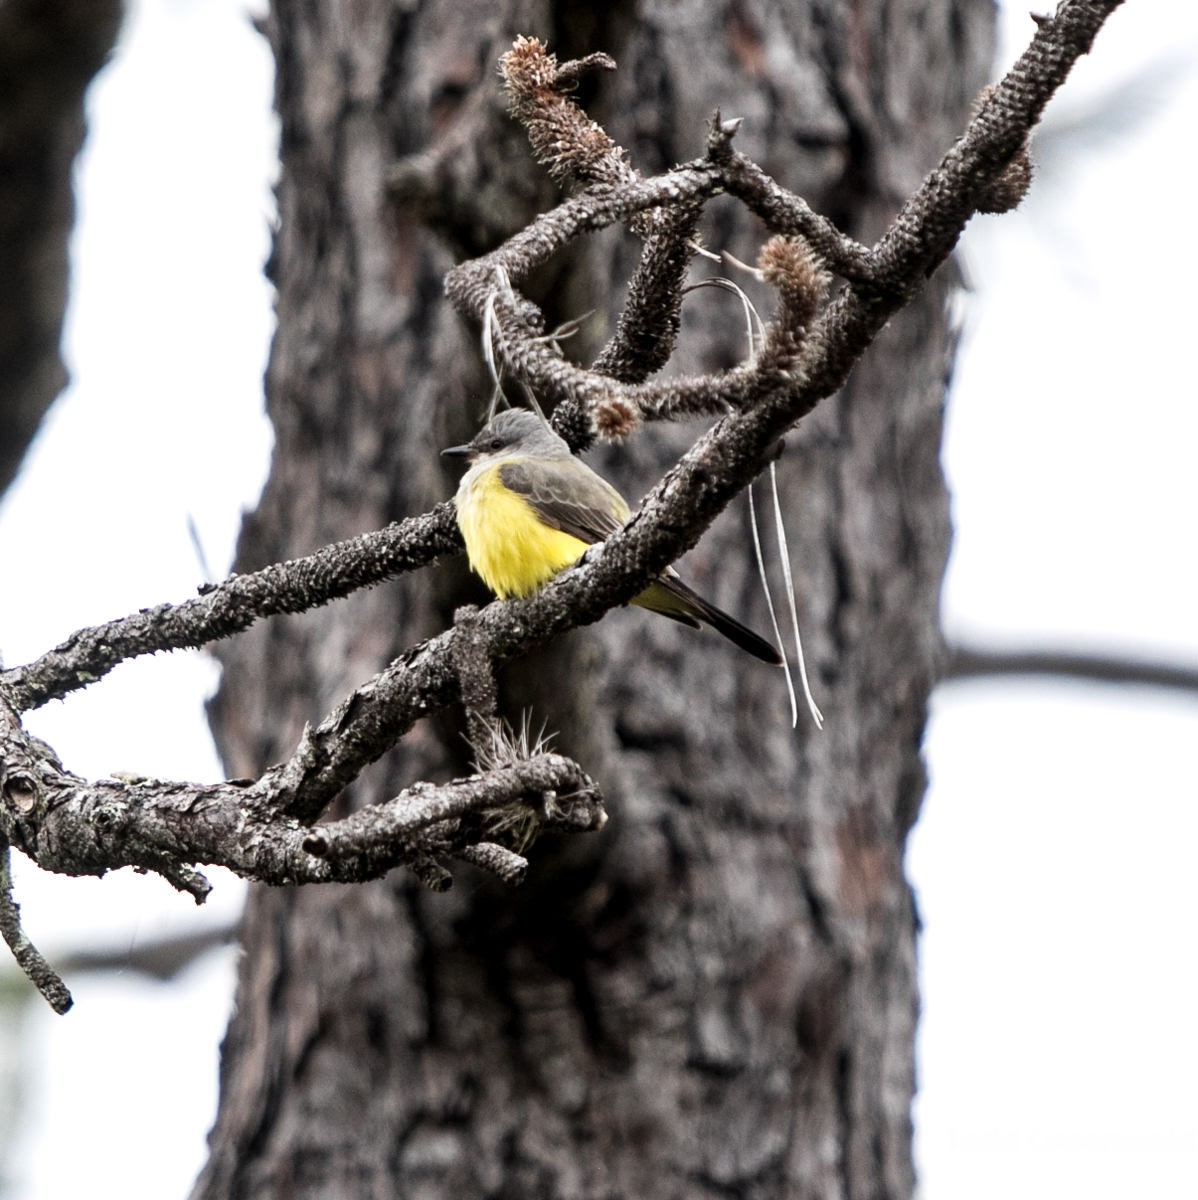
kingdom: Animalia
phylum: Chordata
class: Aves
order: Passeriformes
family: Tyrannidae
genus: Tyrannus
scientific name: Tyrannus verticalis
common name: Western kingbird
